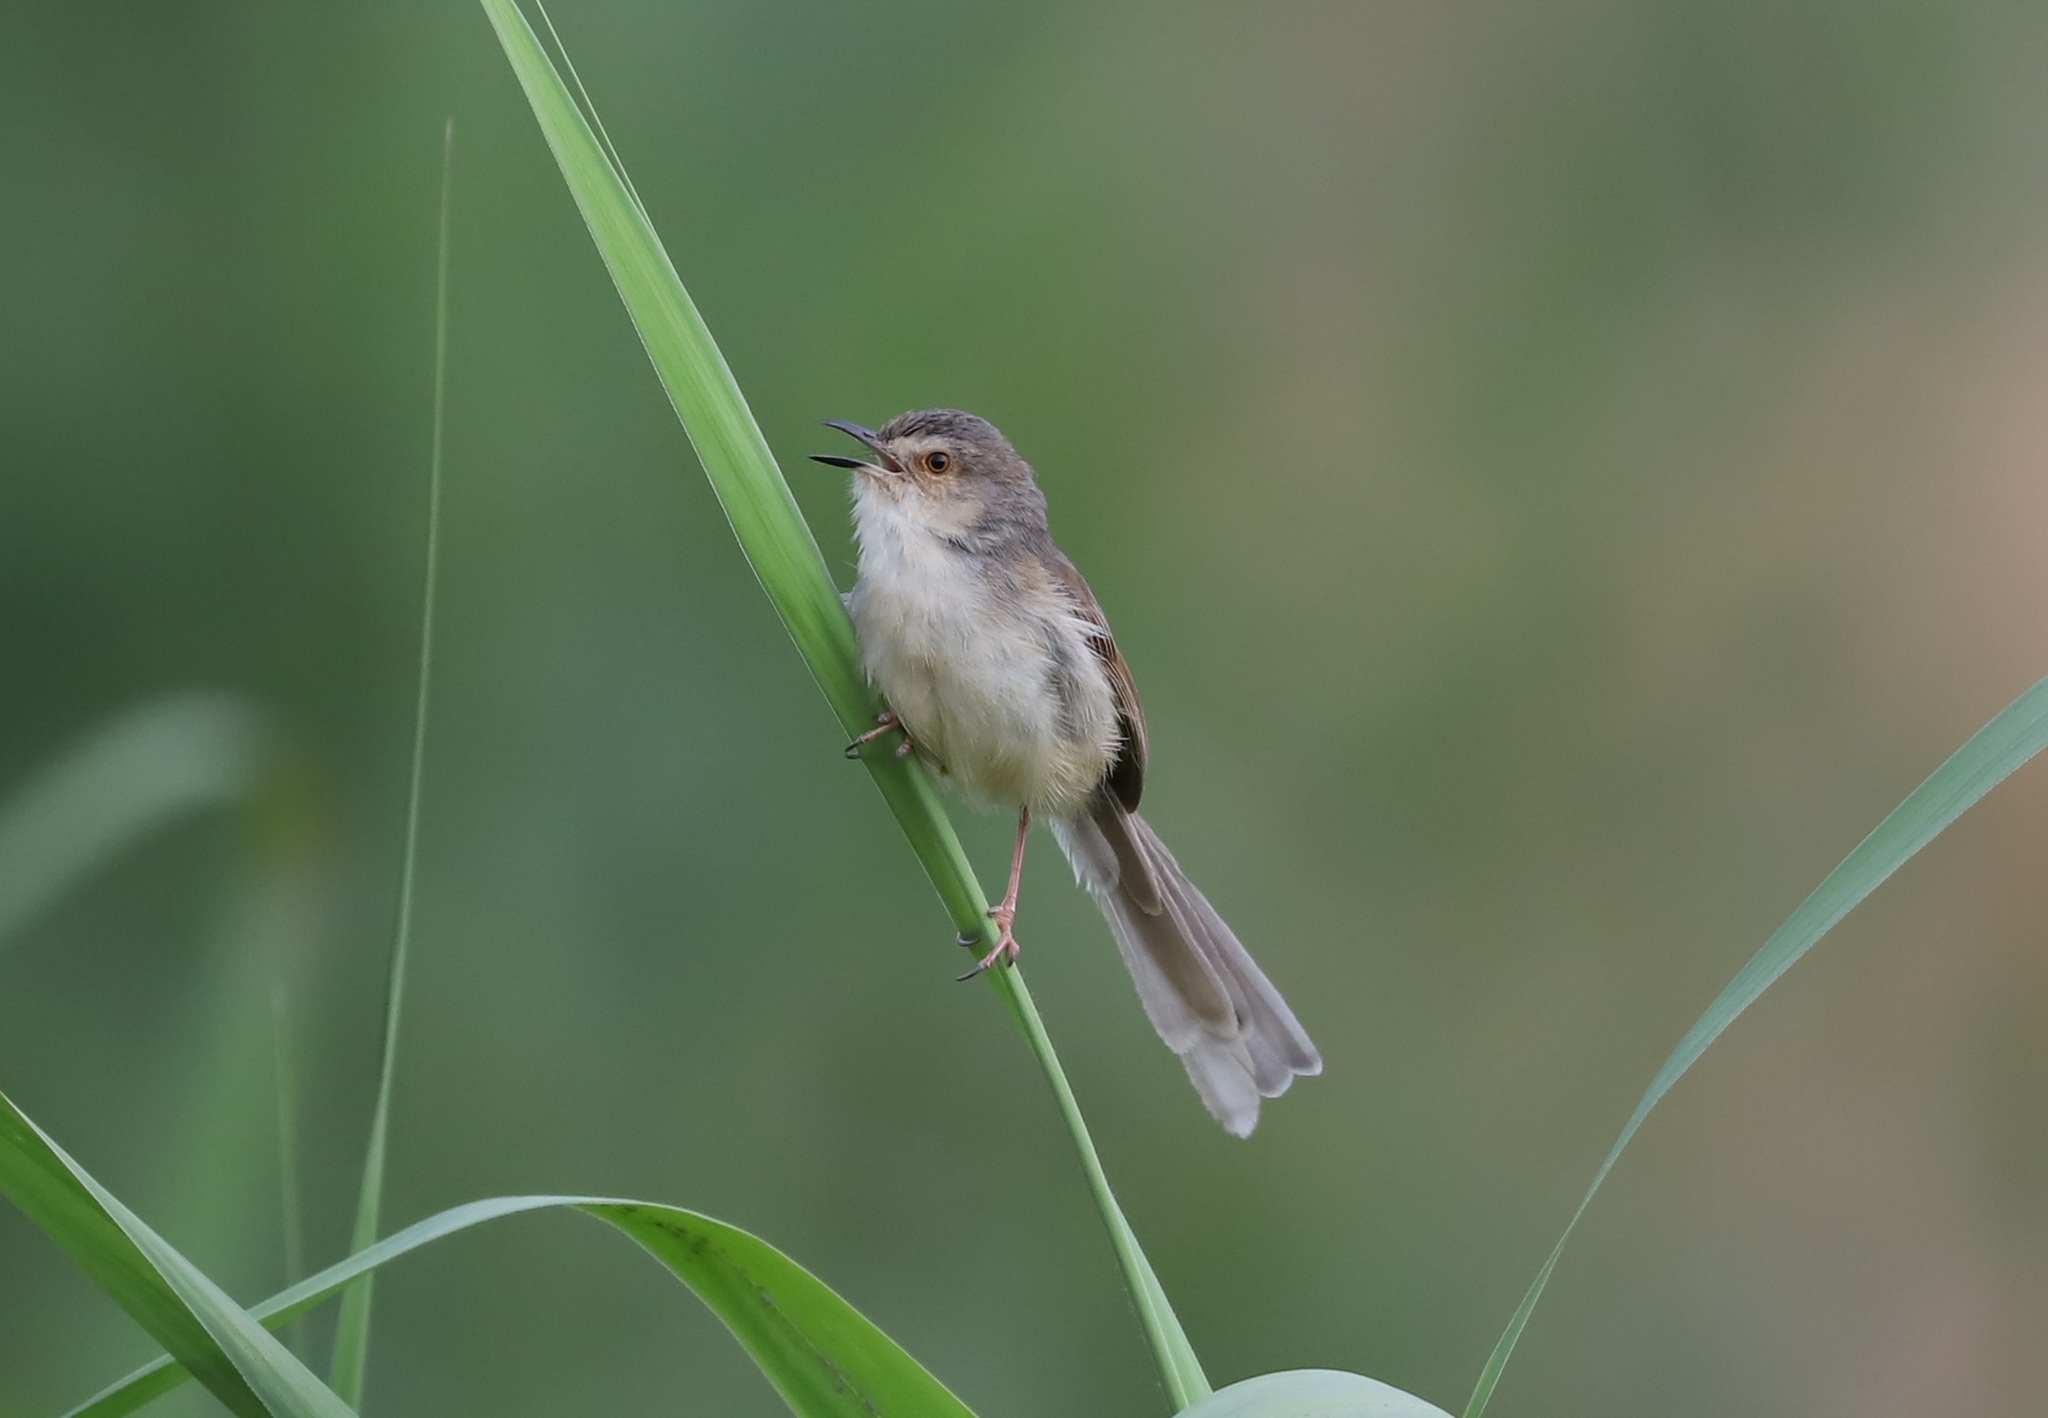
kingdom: Animalia
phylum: Chordata
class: Aves
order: Passeriformes
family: Cisticolidae
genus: Prinia
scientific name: Prinia inornata
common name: Plain prinia
